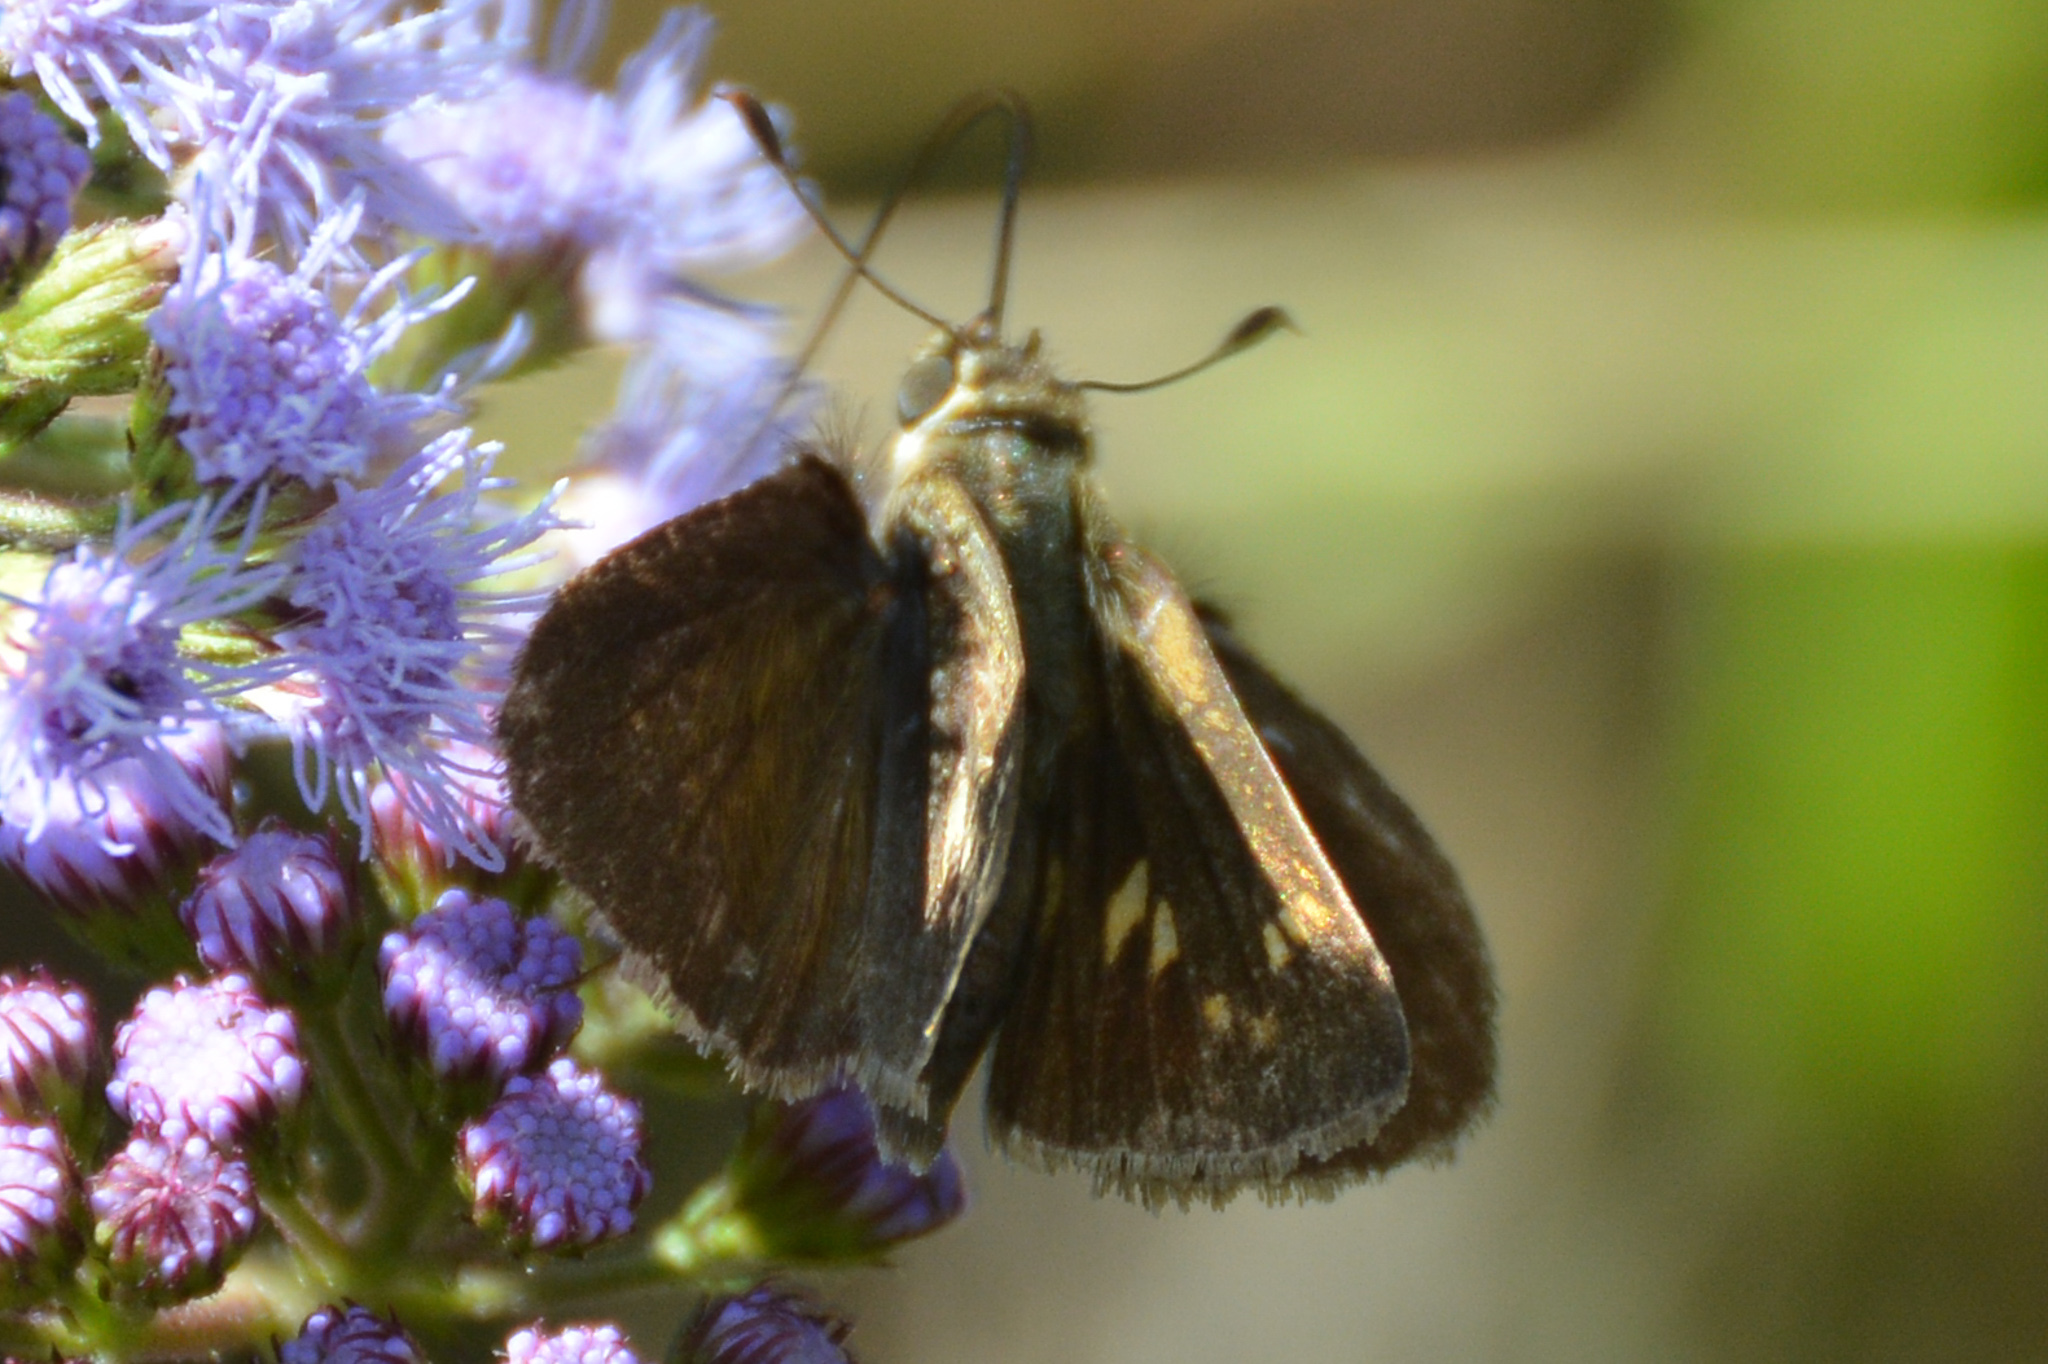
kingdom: Animalia
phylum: Arthropoda
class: Insecta
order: Lepidoptera
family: Hesperiidae
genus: Polites
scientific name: Polites vibex
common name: Whirlabout
